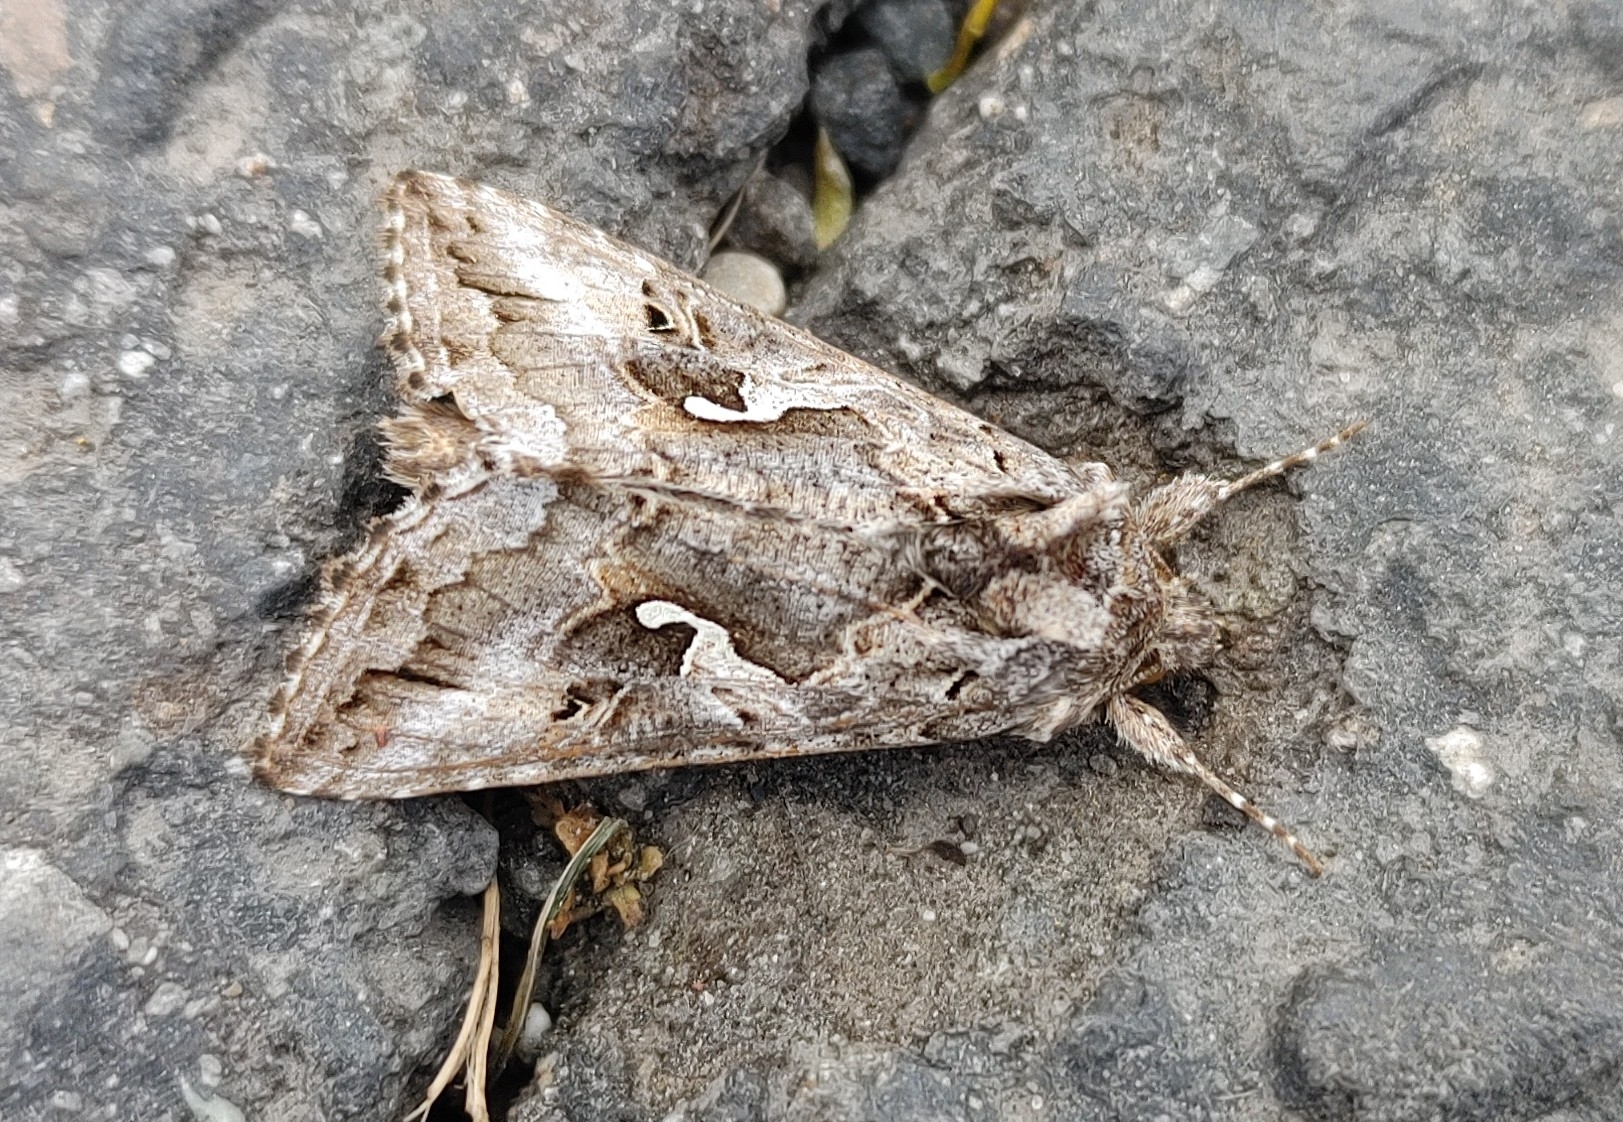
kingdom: Animalia
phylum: Arthropoda
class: Insecta
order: Lepidoptera
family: Noctuidae
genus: Autographa
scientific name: Autographa californica
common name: Alfalfa looper
